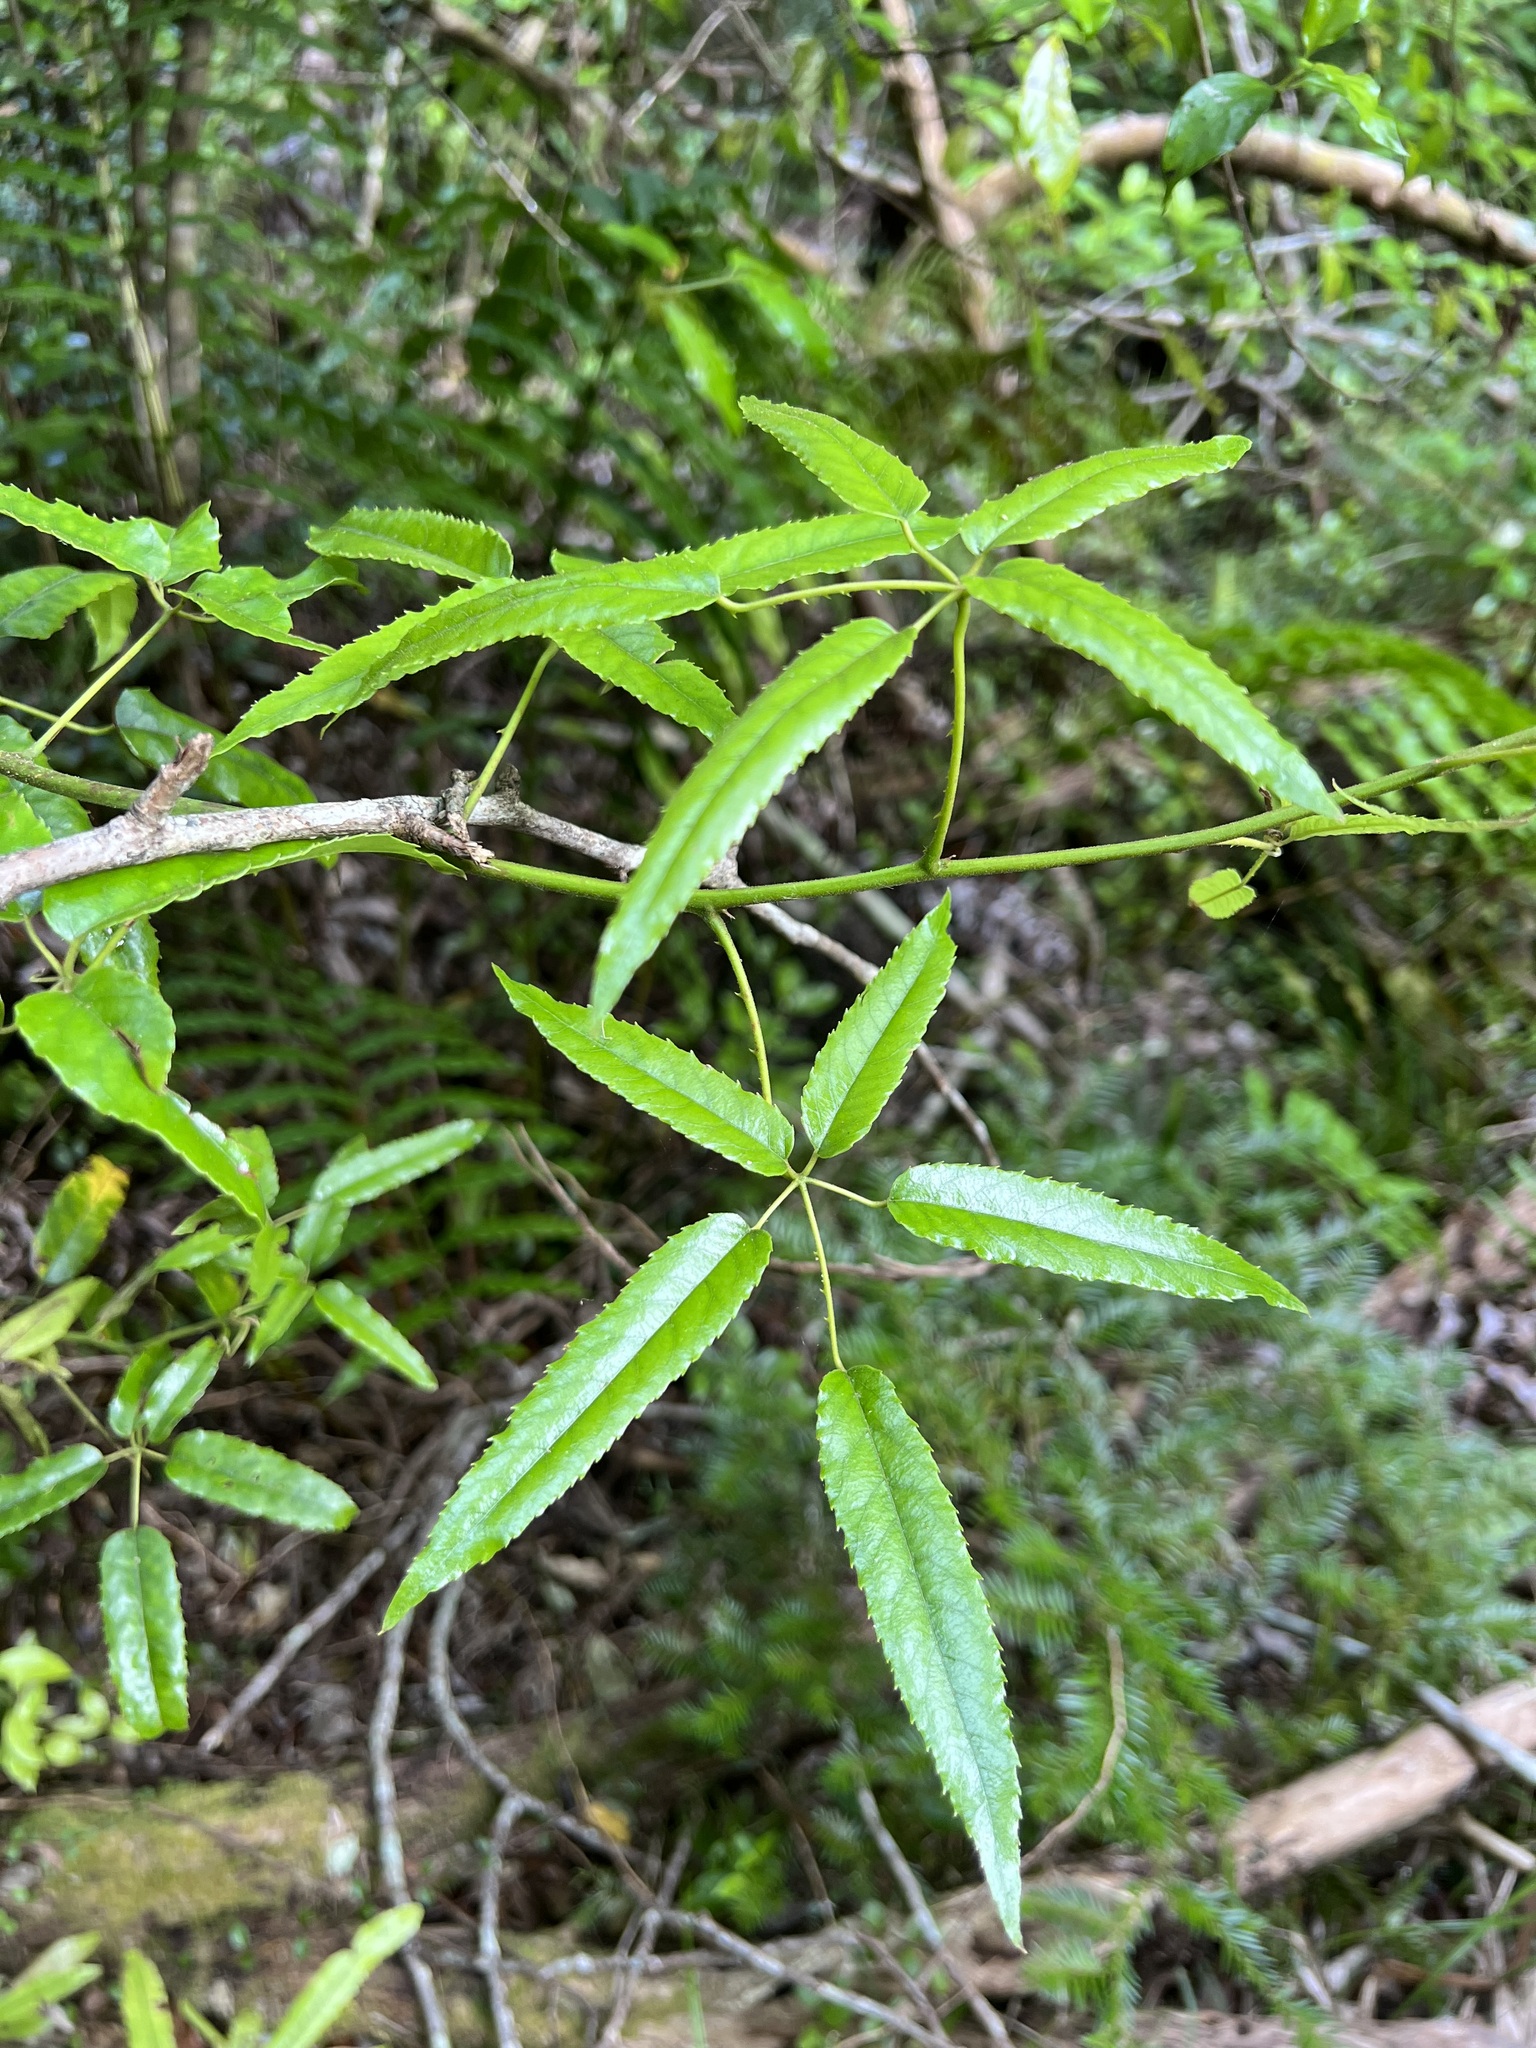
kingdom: Plantae
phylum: Tracheophyta
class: Magnoliopsida
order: Rosales
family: Rosaceae
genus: Rubus
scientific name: Rubus cissoides
